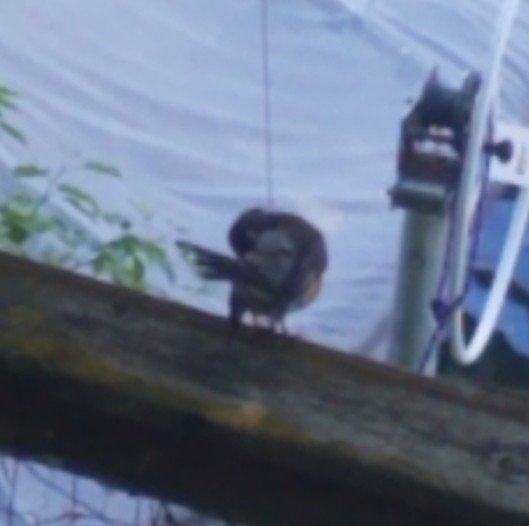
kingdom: Animalia
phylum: Chordata
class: Aves
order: Passeriformes
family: Turdidae
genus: Turdus
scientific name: Turdus migratorius
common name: American robin
